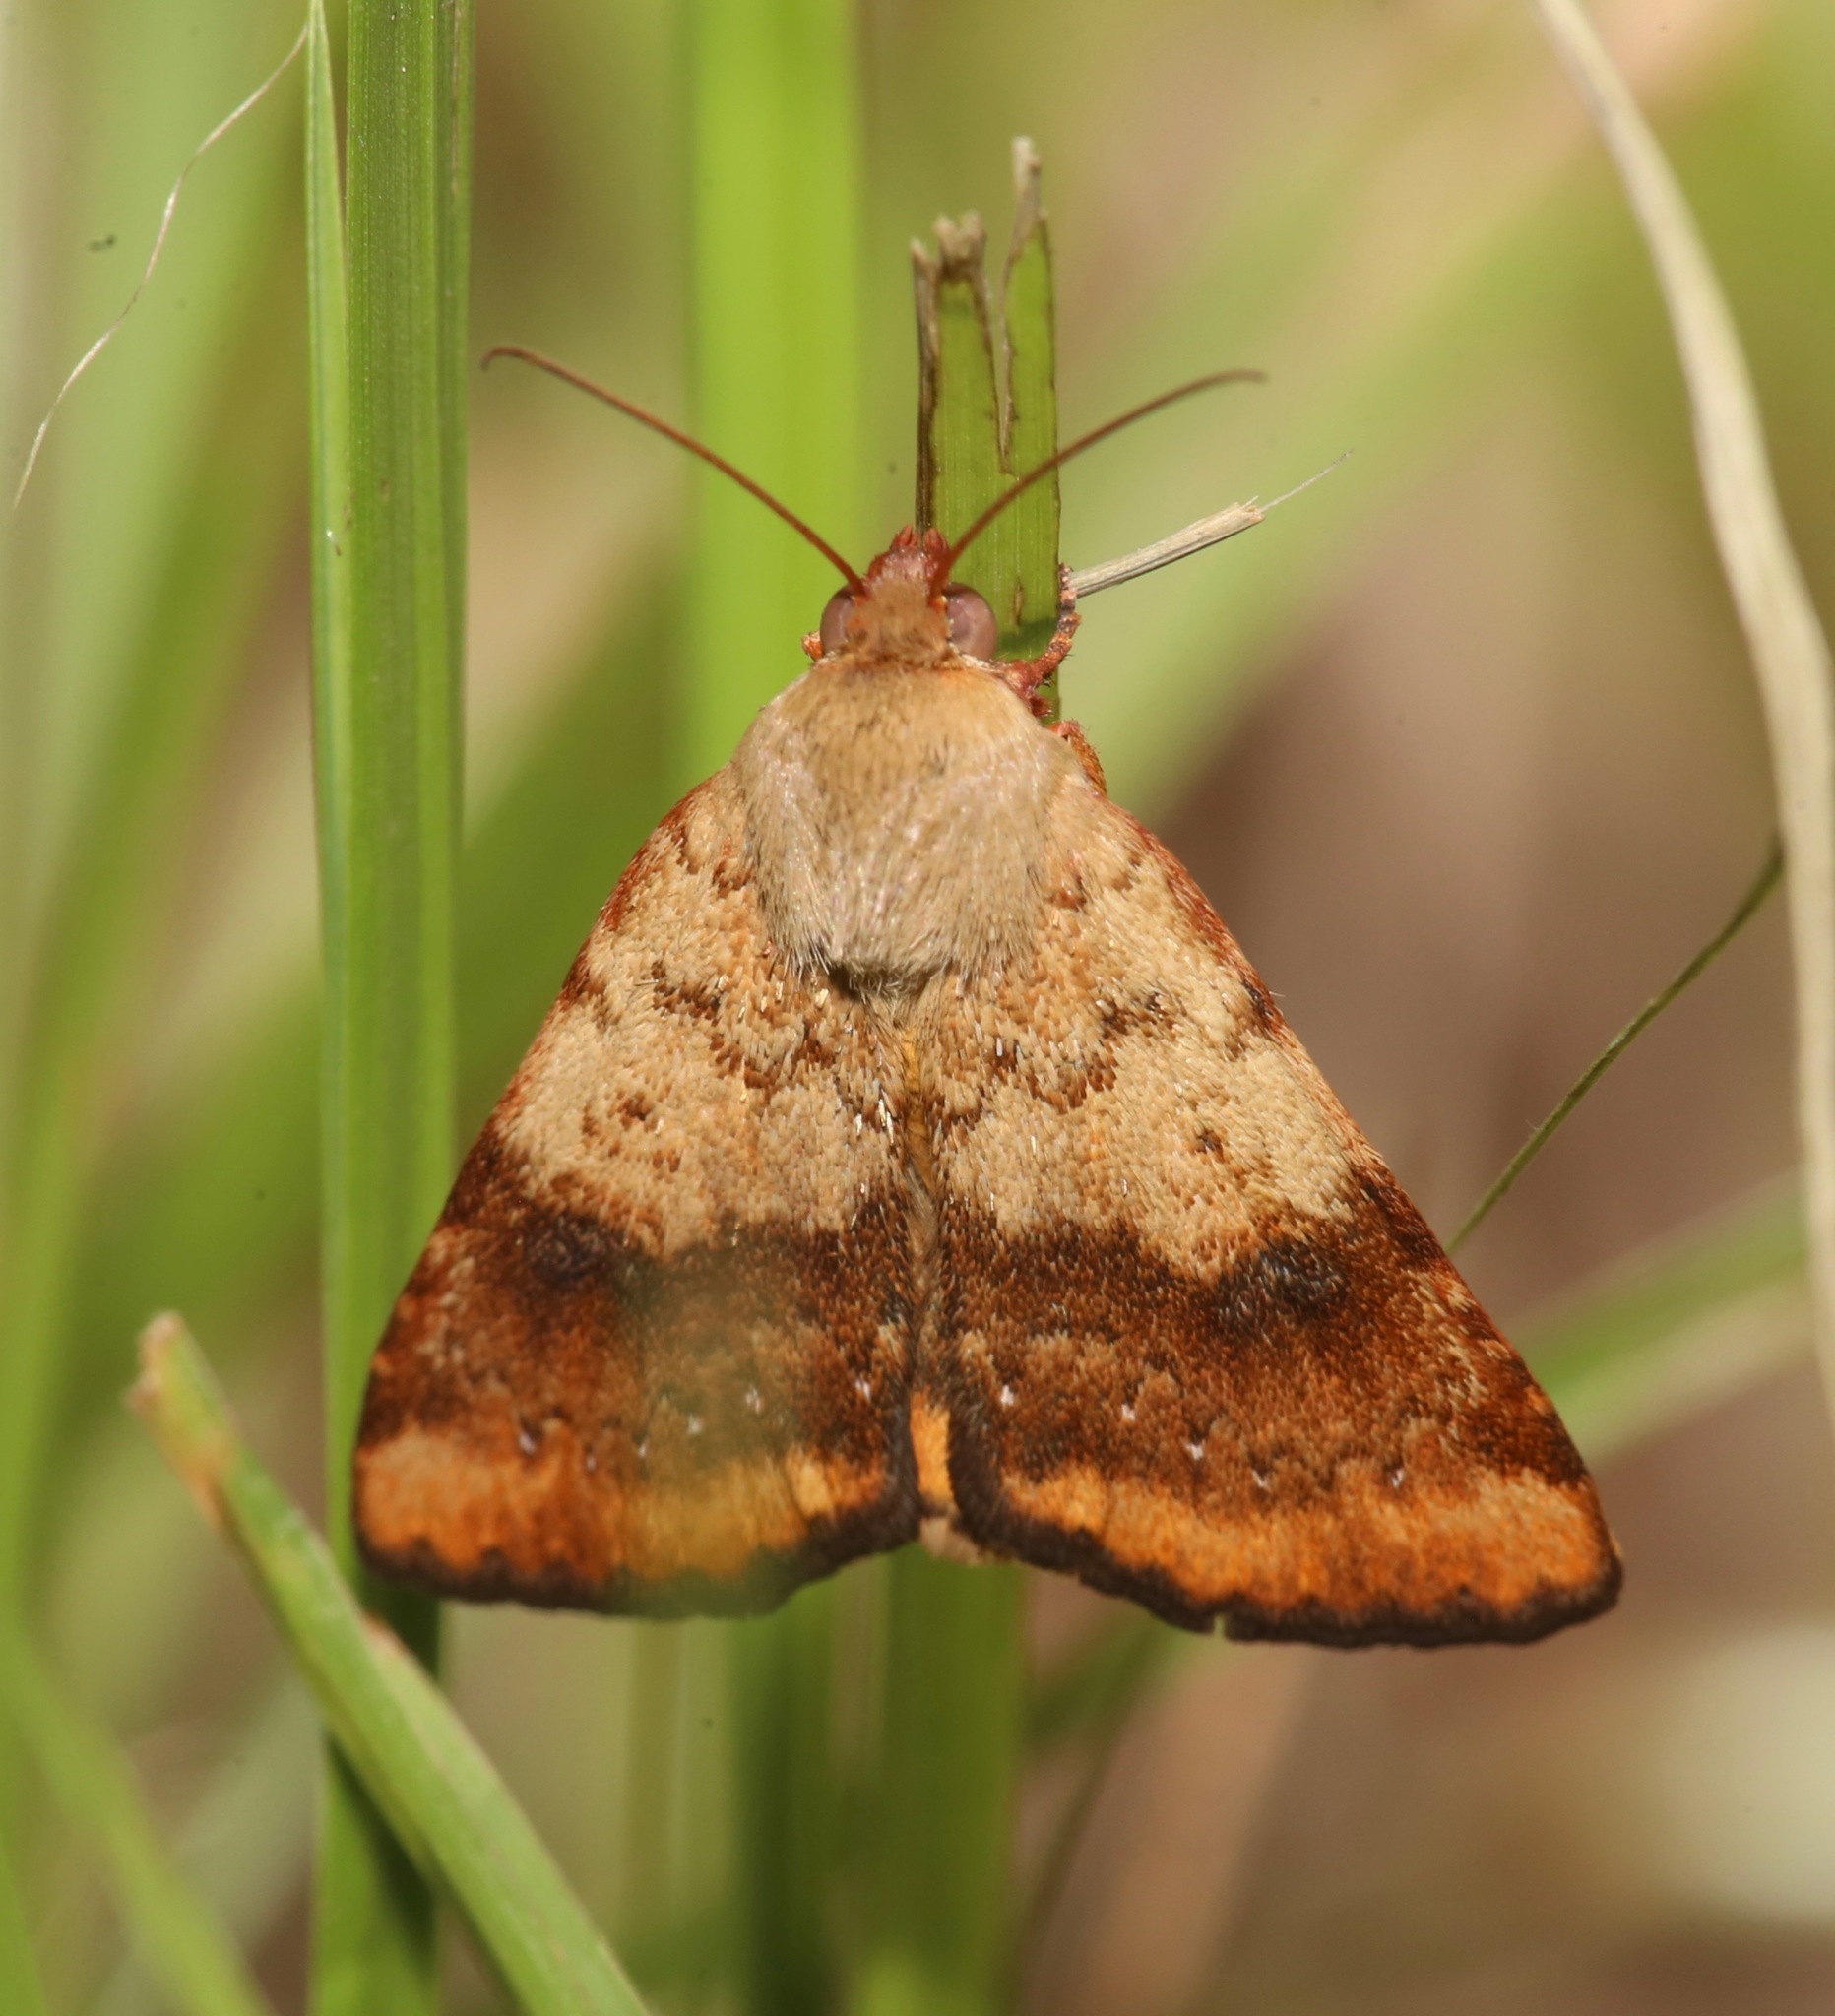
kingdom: Animalia
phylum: Arthropoda
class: Insecta
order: Lepidoptera
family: Noctuidae
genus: Heliocheilus
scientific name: Heliocheilus lupata
